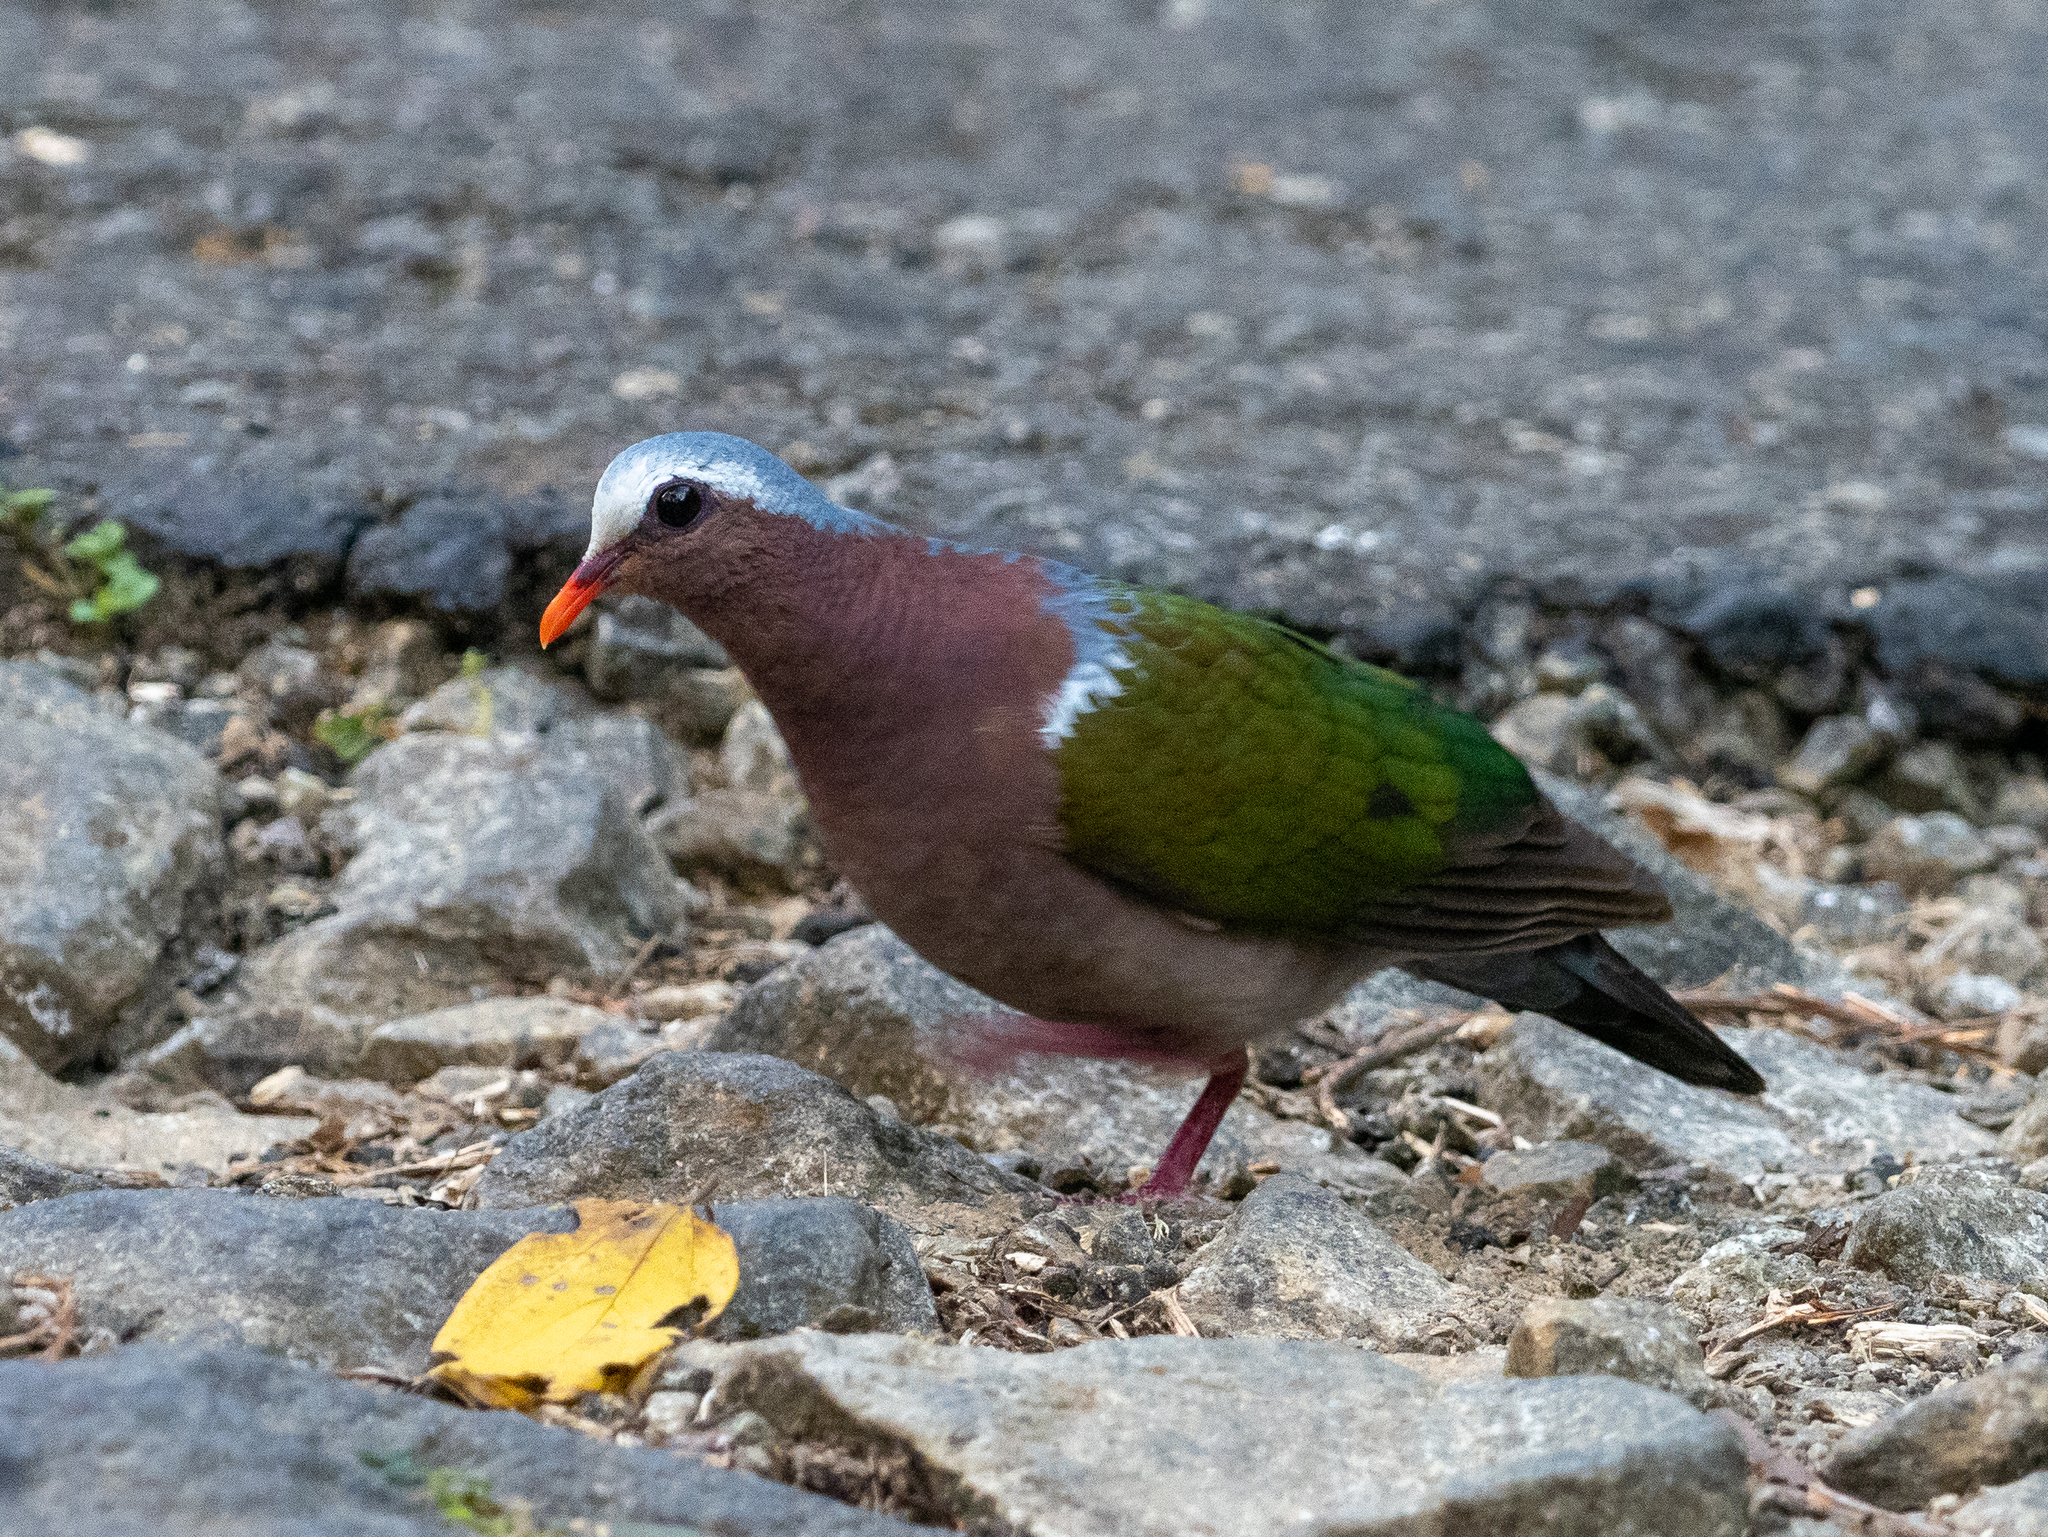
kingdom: Animalia
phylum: Chordata
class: Aves
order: Columbiformes
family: Columbidae
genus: Chalcophaps
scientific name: Chalcophaps indica
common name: Common emerald dove
